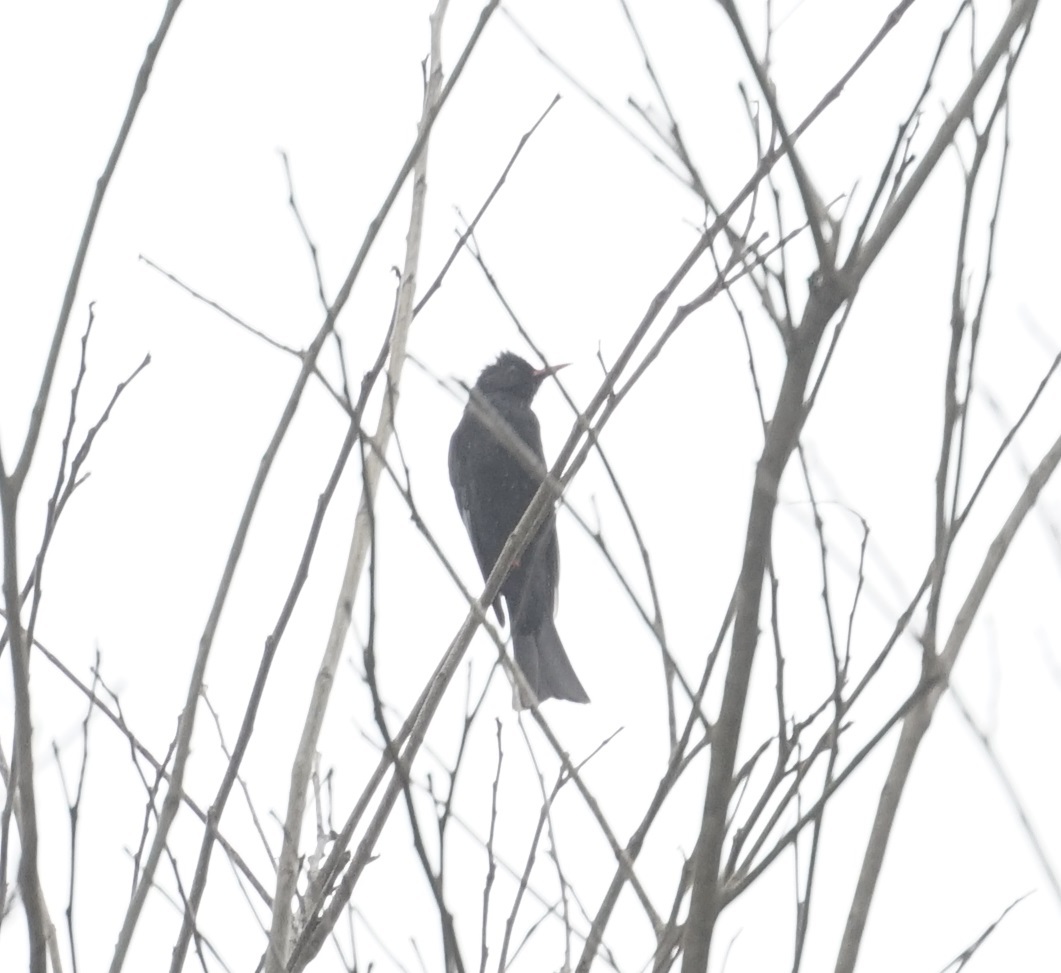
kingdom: Animalia
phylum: Chordata
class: Aves
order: Passeriformes
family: Pycnonotidae
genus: Hypsipetes
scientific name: Hypsipetes leucocephalus
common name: Black bulbul
